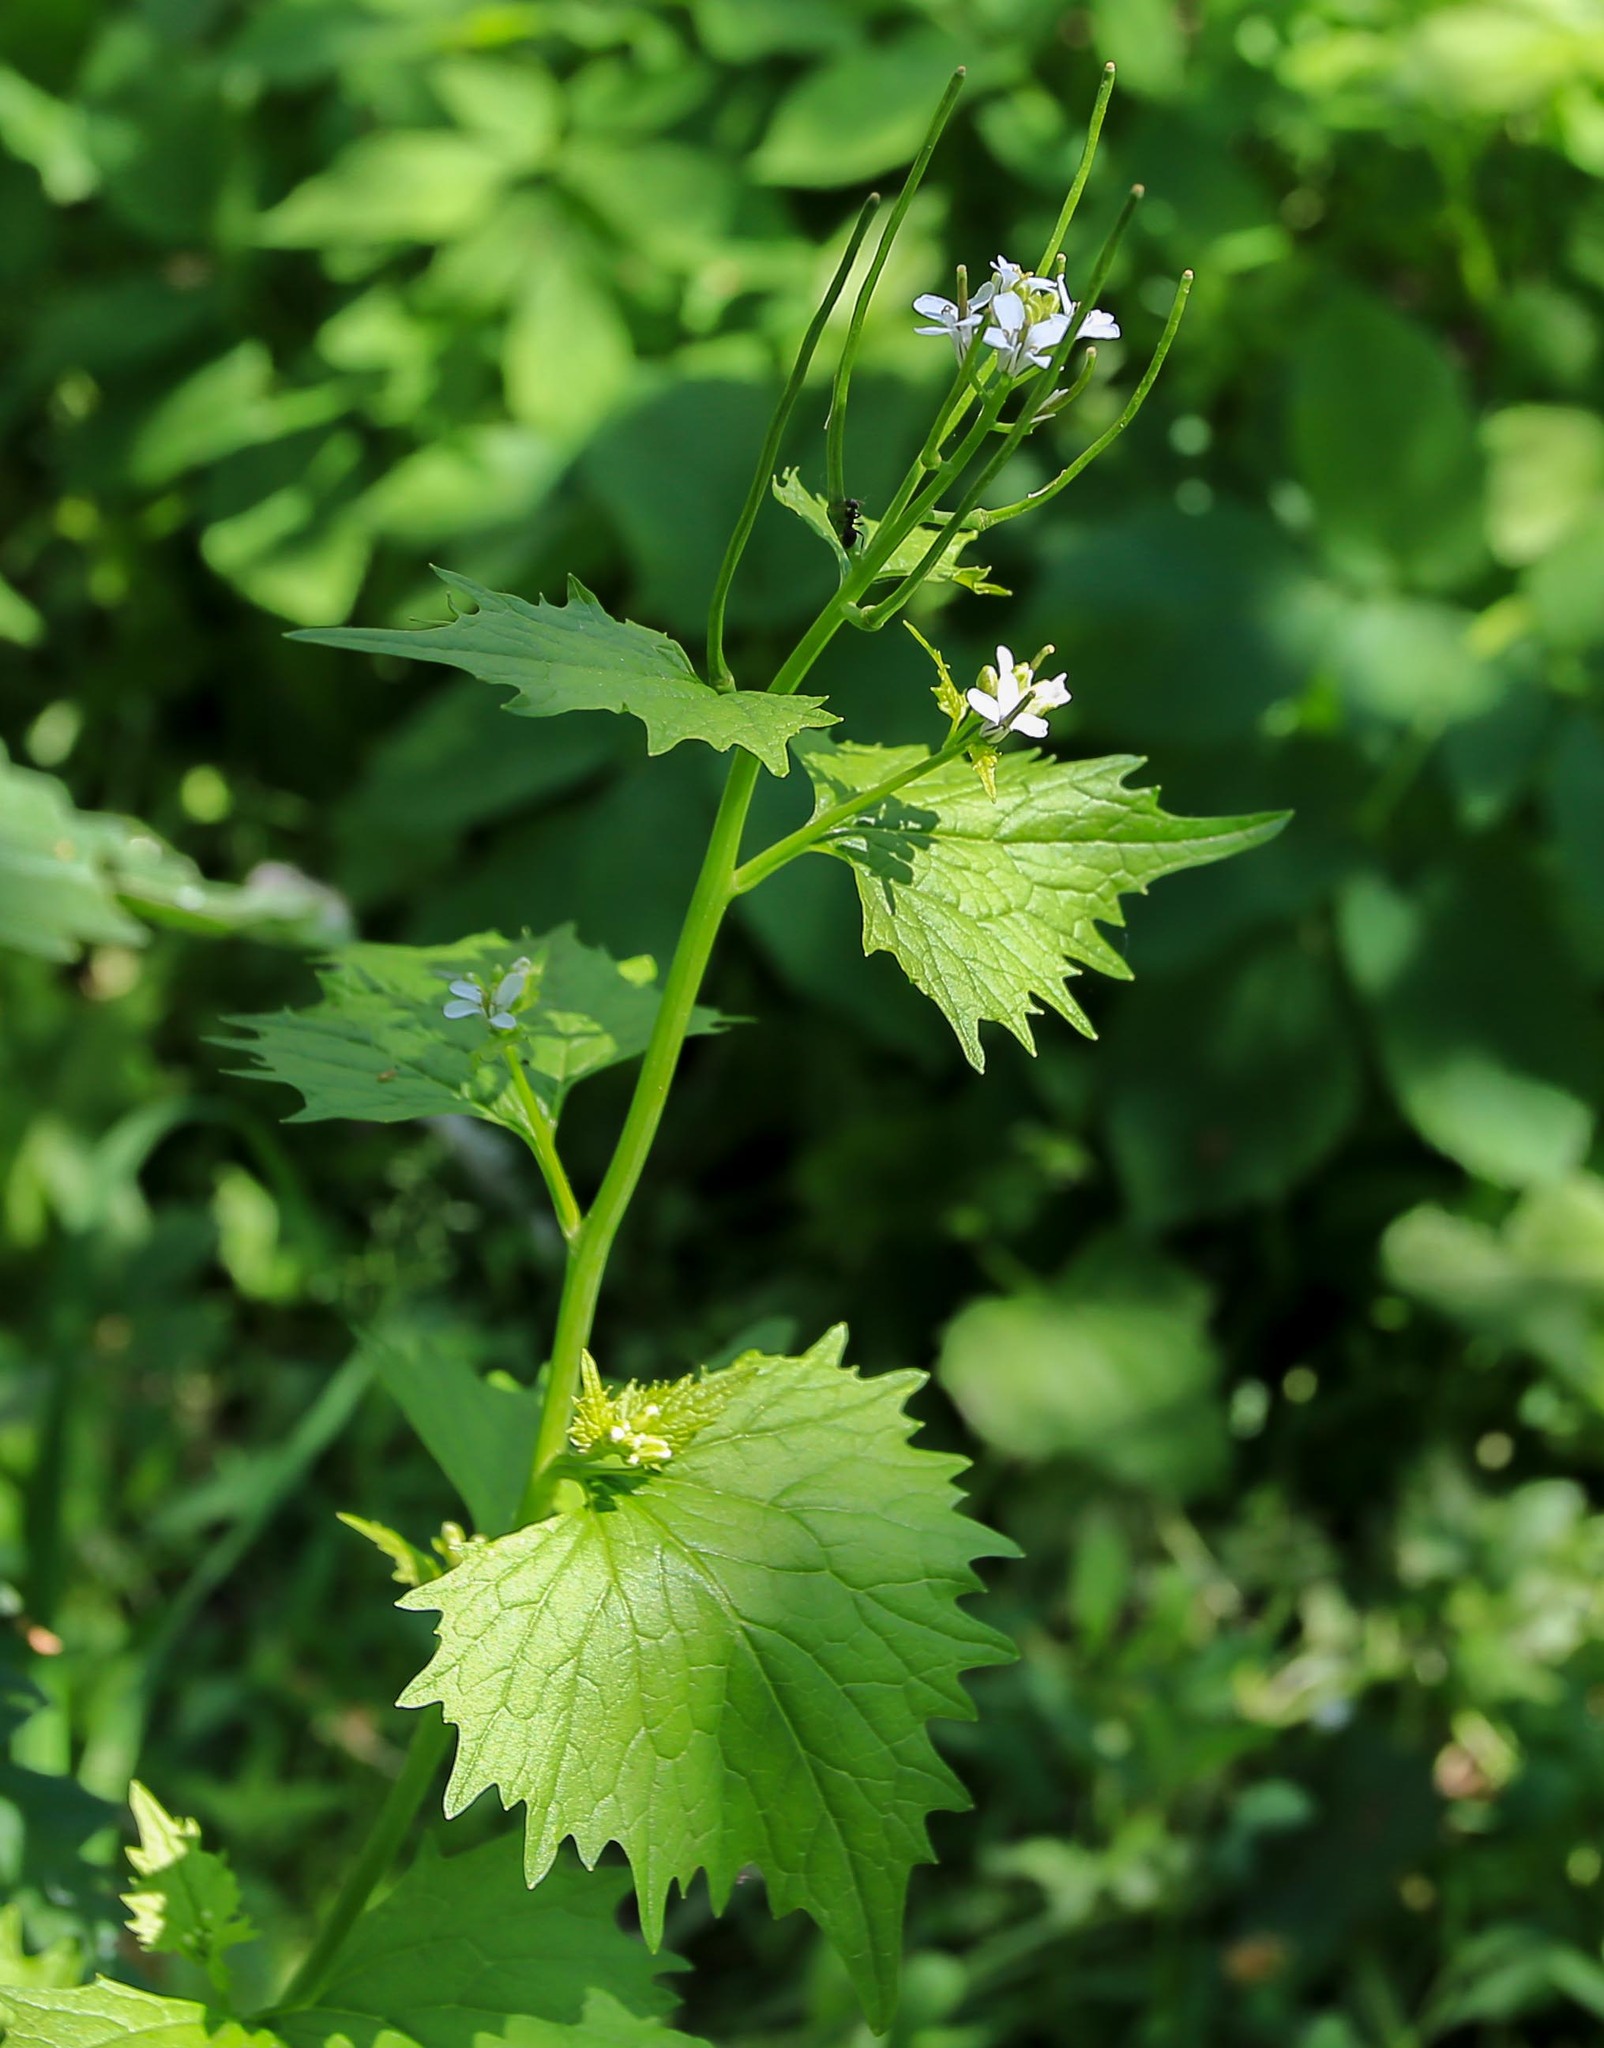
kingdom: Plantae
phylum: Tracheophyta
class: Magnoliopsida
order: Brassicales
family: Brassicaceae
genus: Alliaria
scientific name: Alliaria petiolata
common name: Garlic mustard
